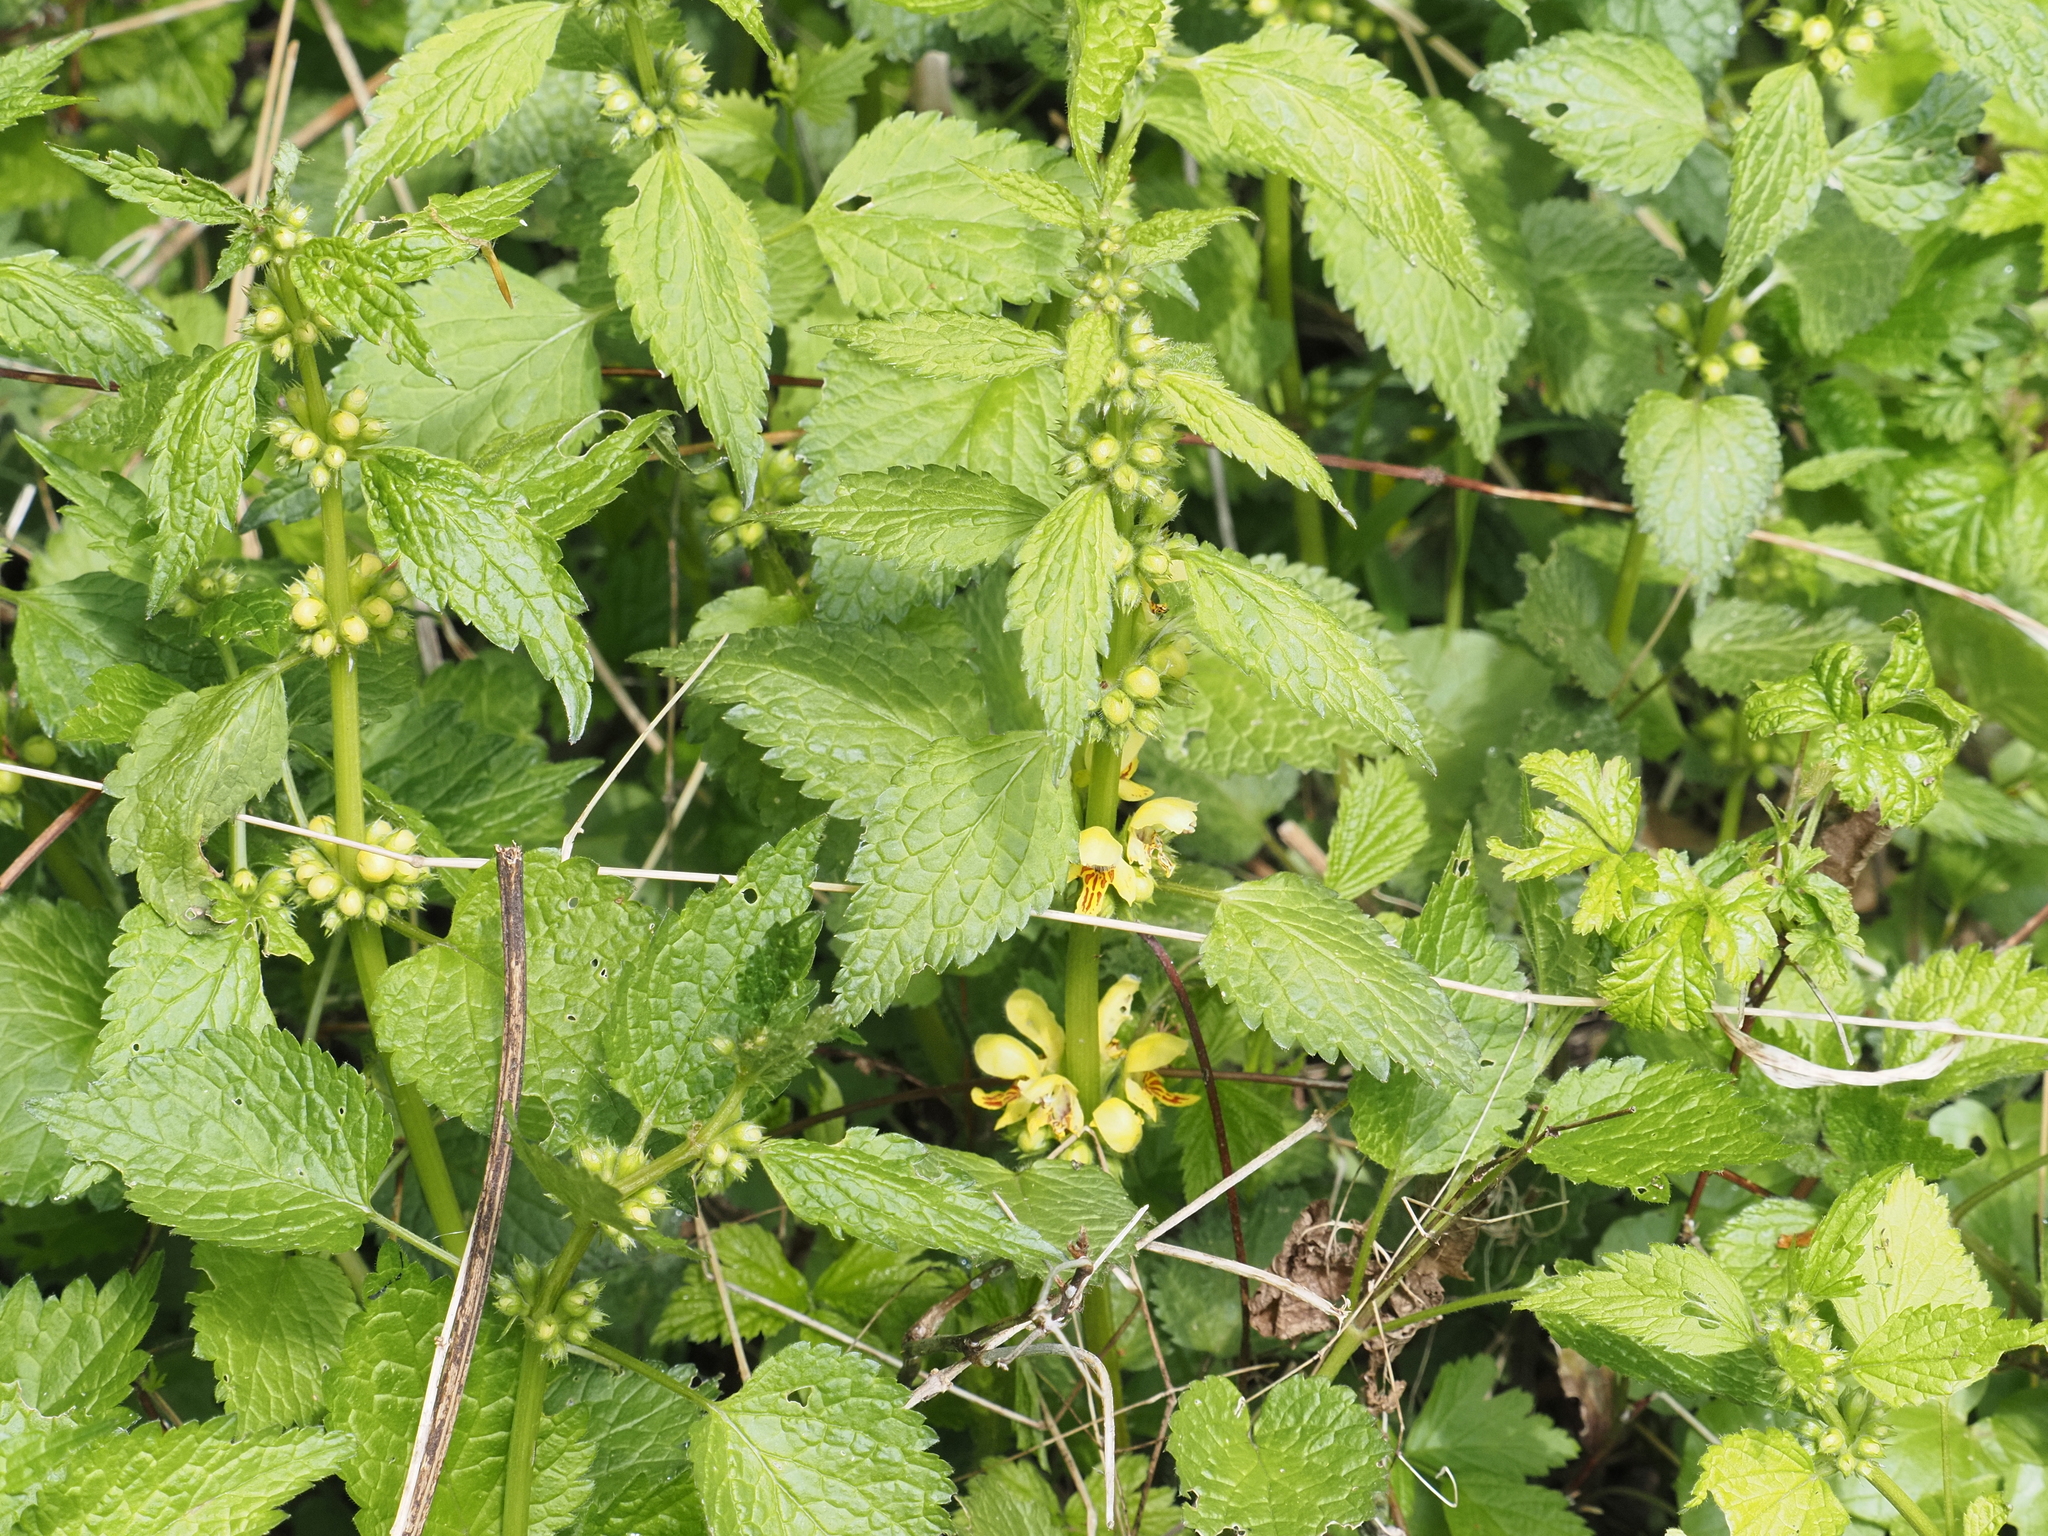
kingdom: Plantae
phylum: Tracheophyta
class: Magnoliopsida
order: Lamiales
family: Lamiaceae
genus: Lamium
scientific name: Lamium galeobdolon
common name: Yellow archangel
